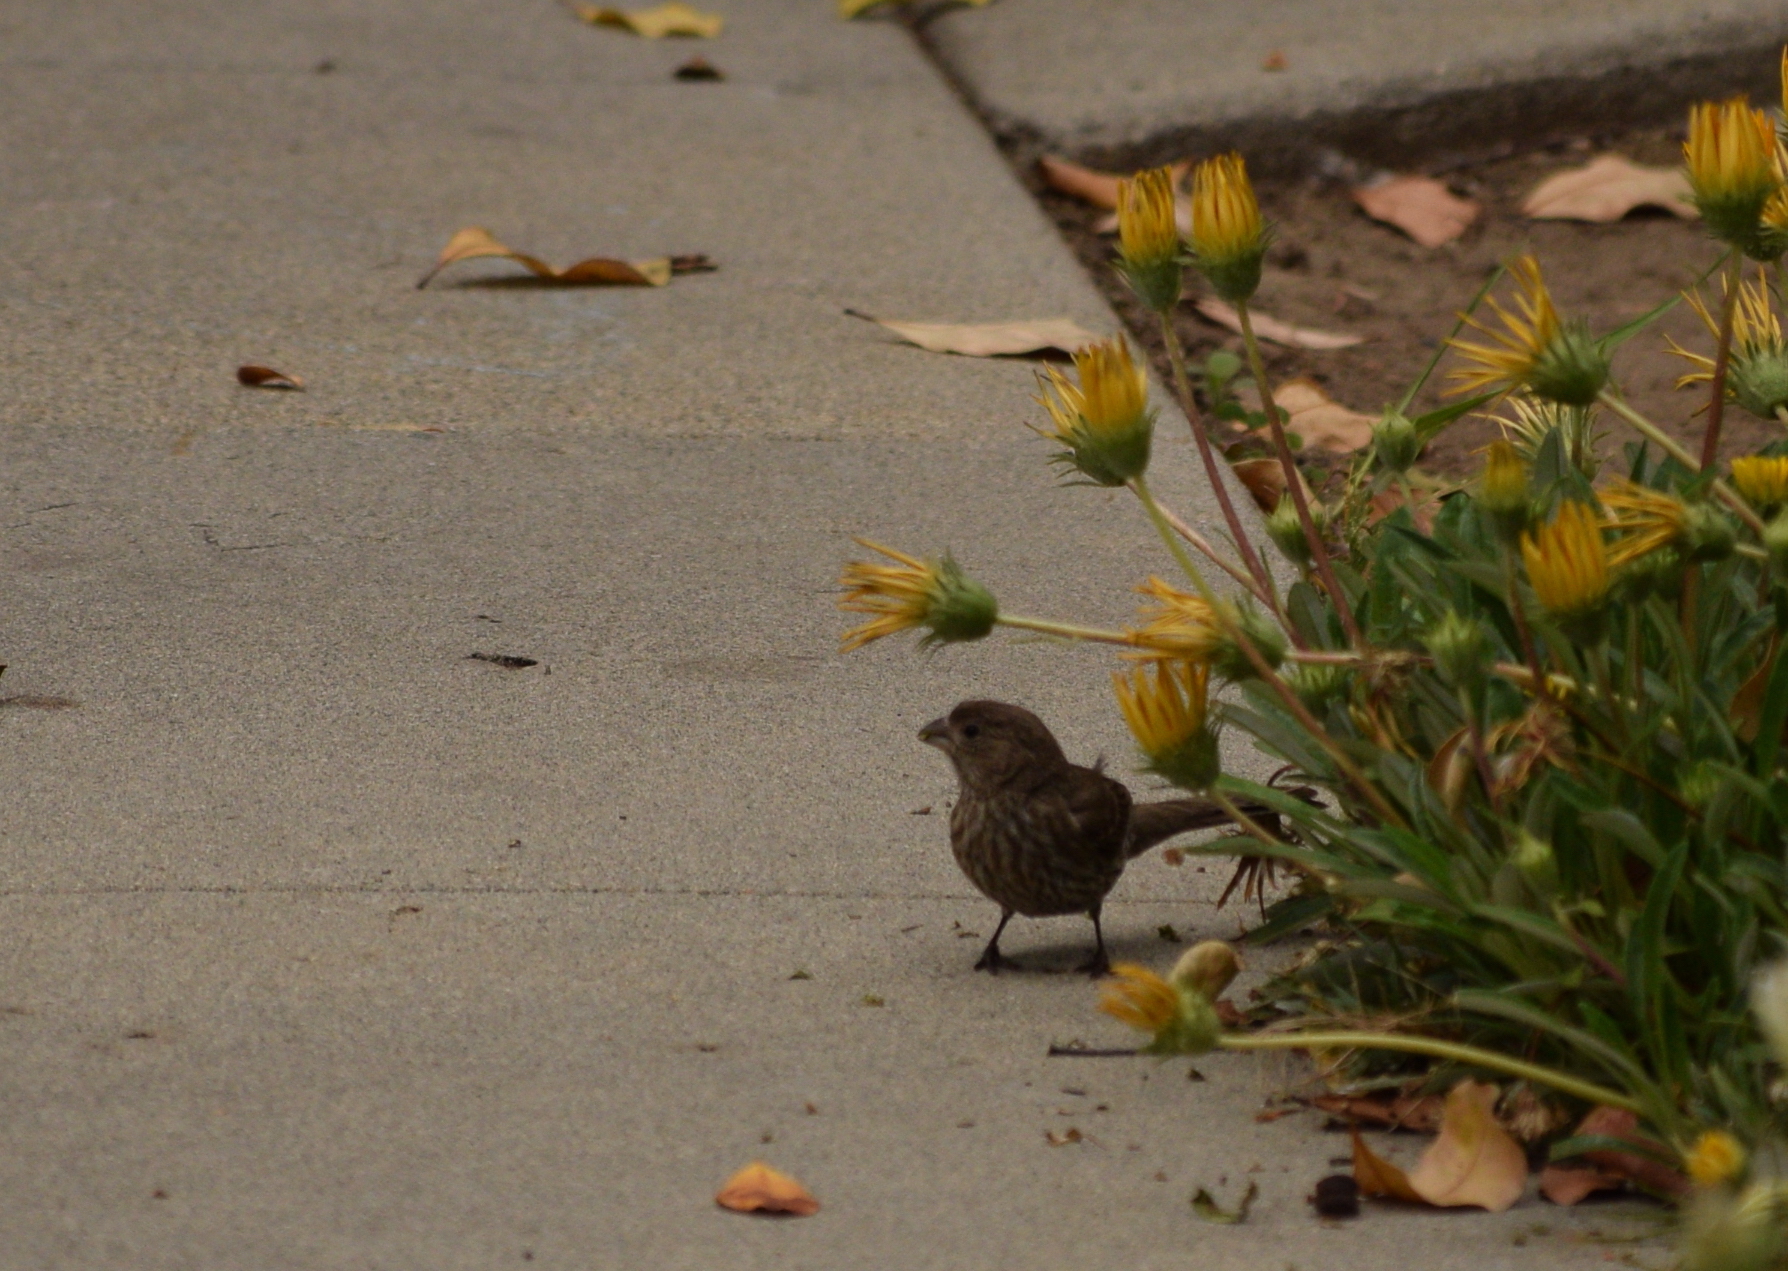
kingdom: Animalia
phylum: Chordata
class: Aves
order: Passeriformes
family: Fringillidae
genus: Haemorhous
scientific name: Haemorhous mexicanus
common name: House finch
